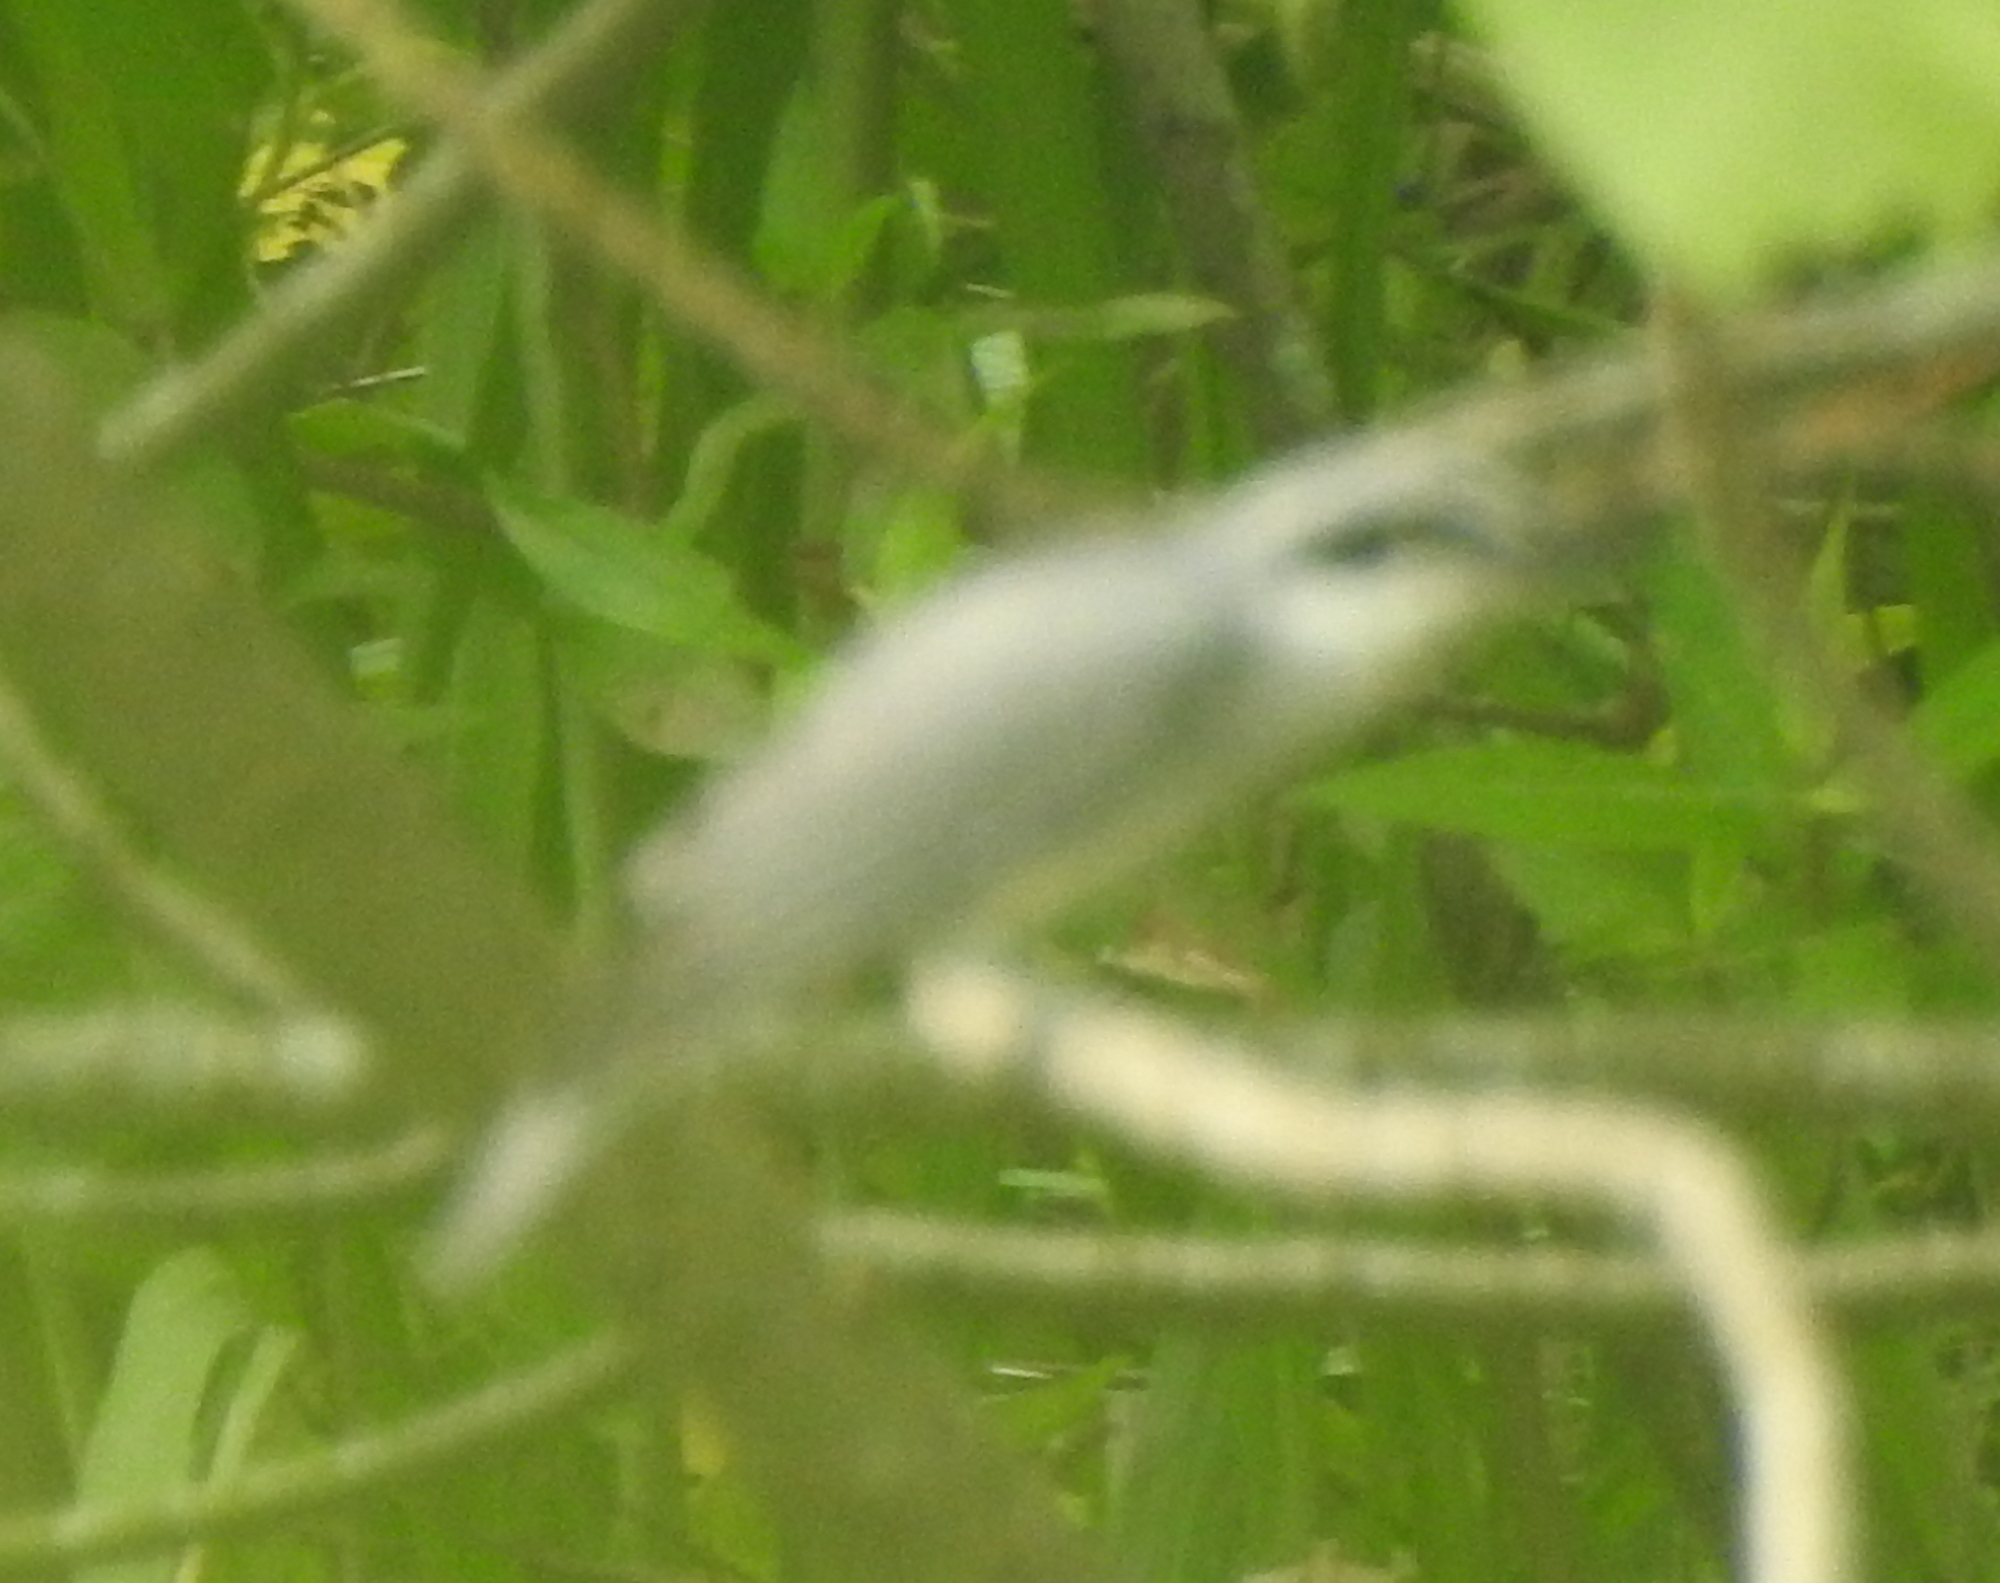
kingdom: Animalia
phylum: Chordata
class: Aves
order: Passeriformes
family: Tephrodornithidae
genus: Tephrodornis
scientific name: Tephrodornis virgatus
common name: Large woodshrike
